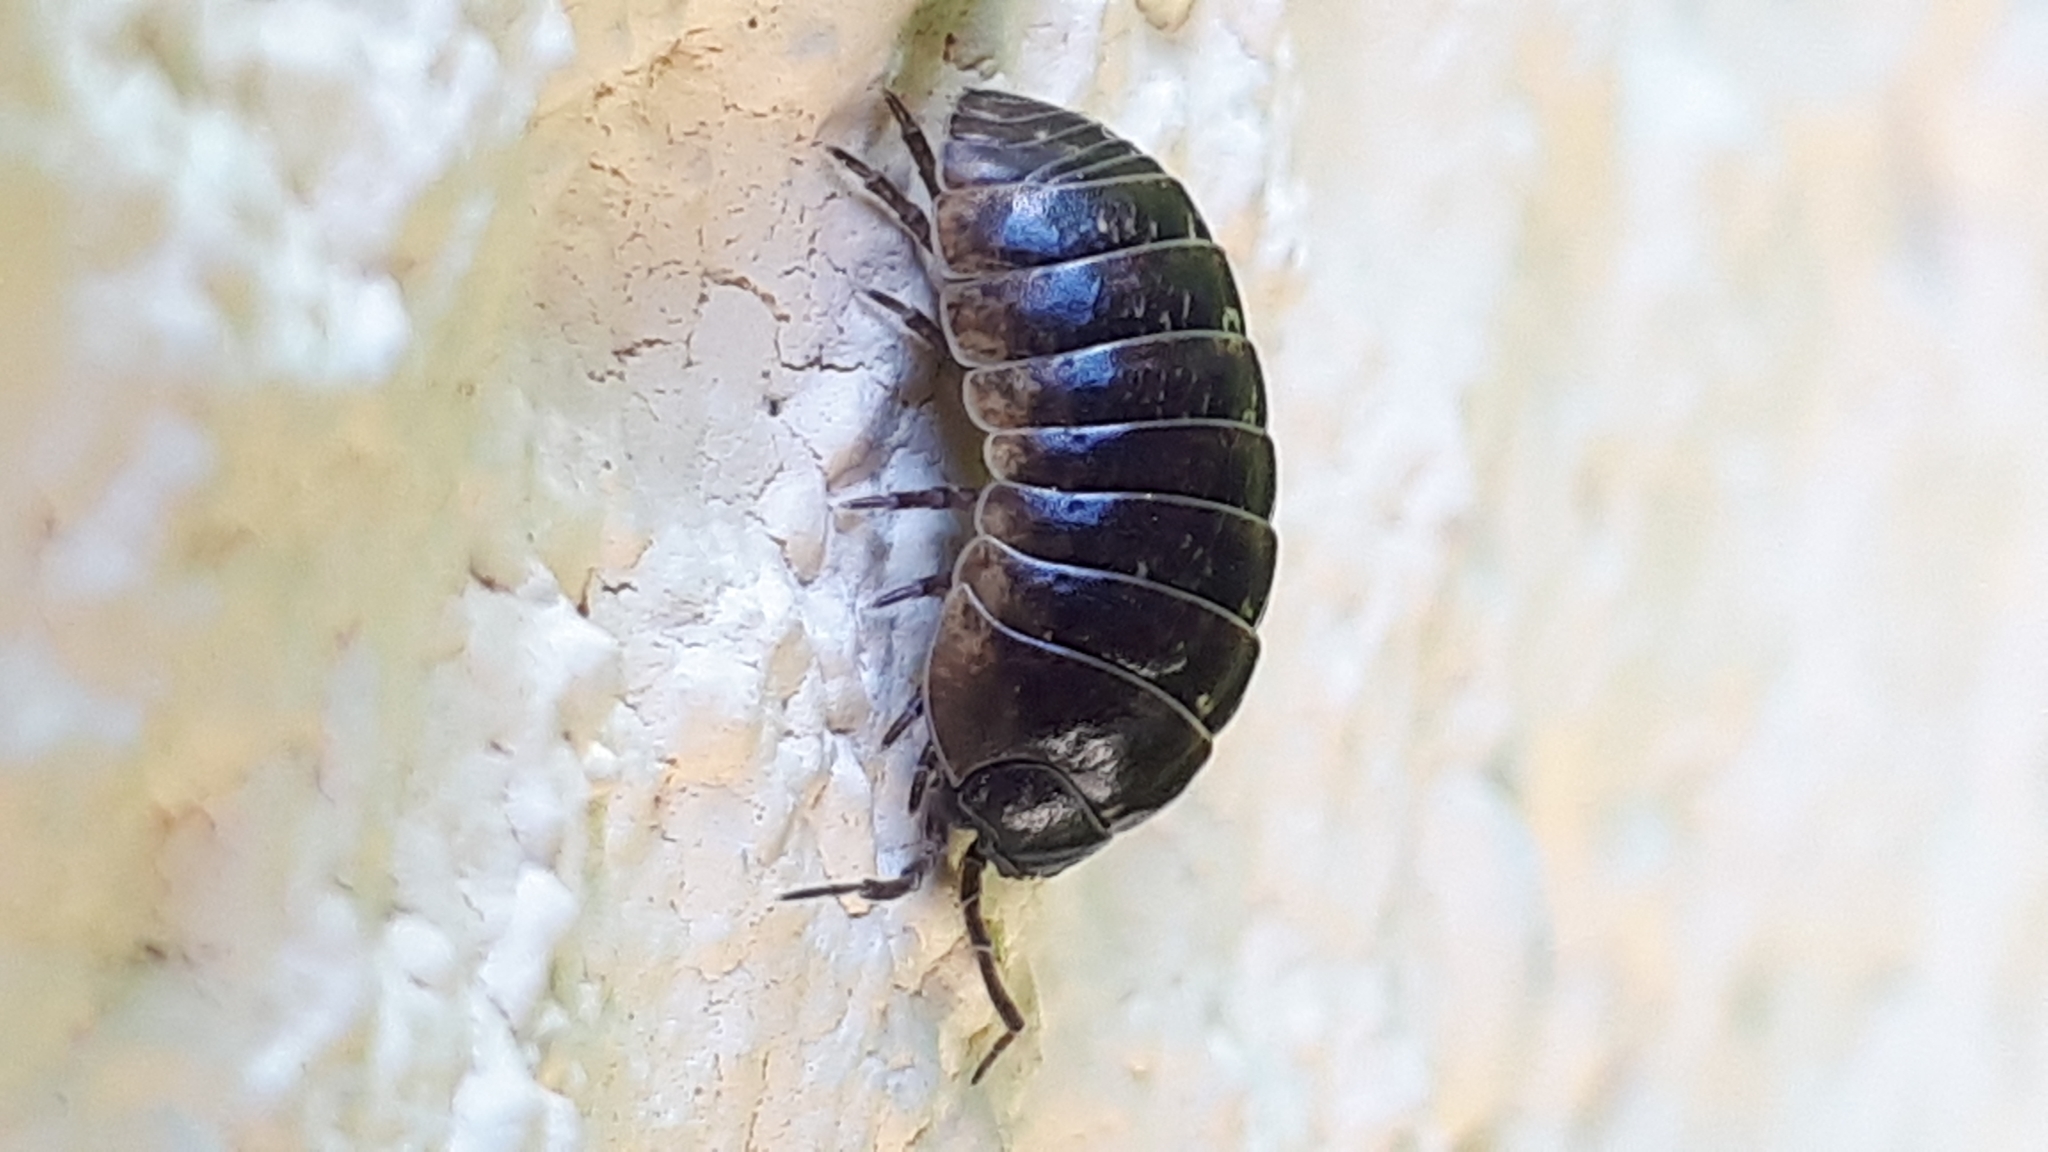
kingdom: Animalia
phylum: Arthropoda
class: Malacostraca
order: Isopoda
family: Armadillidiidae
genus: Armadillidium
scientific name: Armadillidium vulgare
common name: Common pill woodlouse
